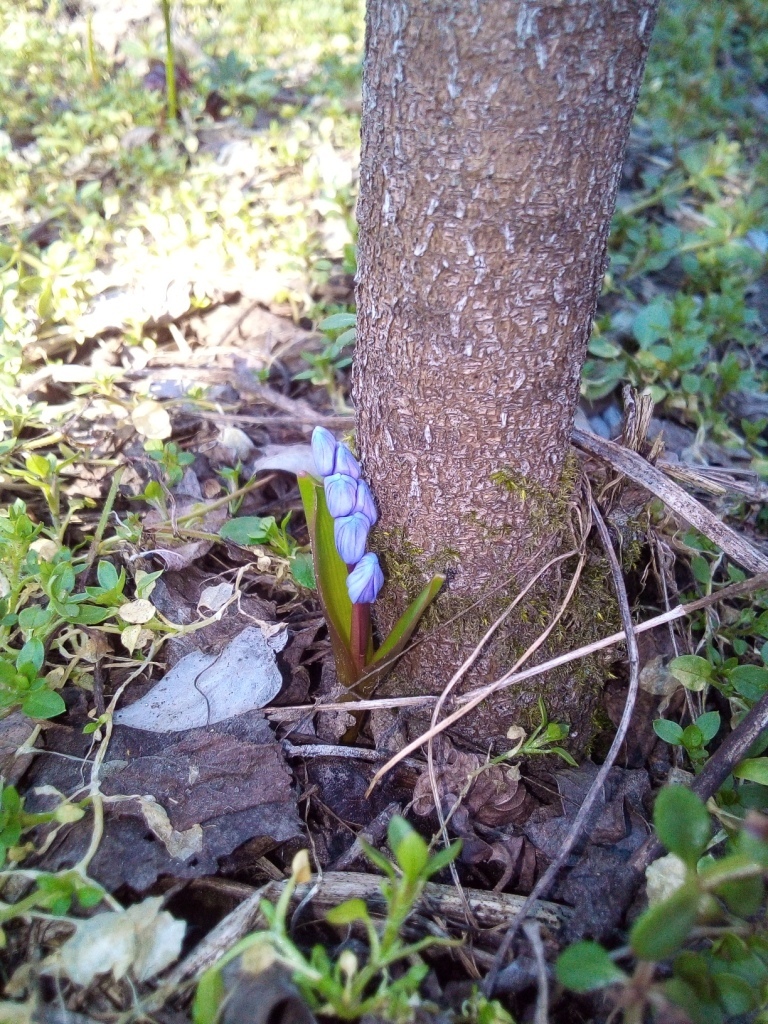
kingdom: Plantae
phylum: Tracheophyta
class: Liliopsida
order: Asparagales
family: Asparagaceae
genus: Scilla
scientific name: Scilla bifolia
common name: Alpine squill
